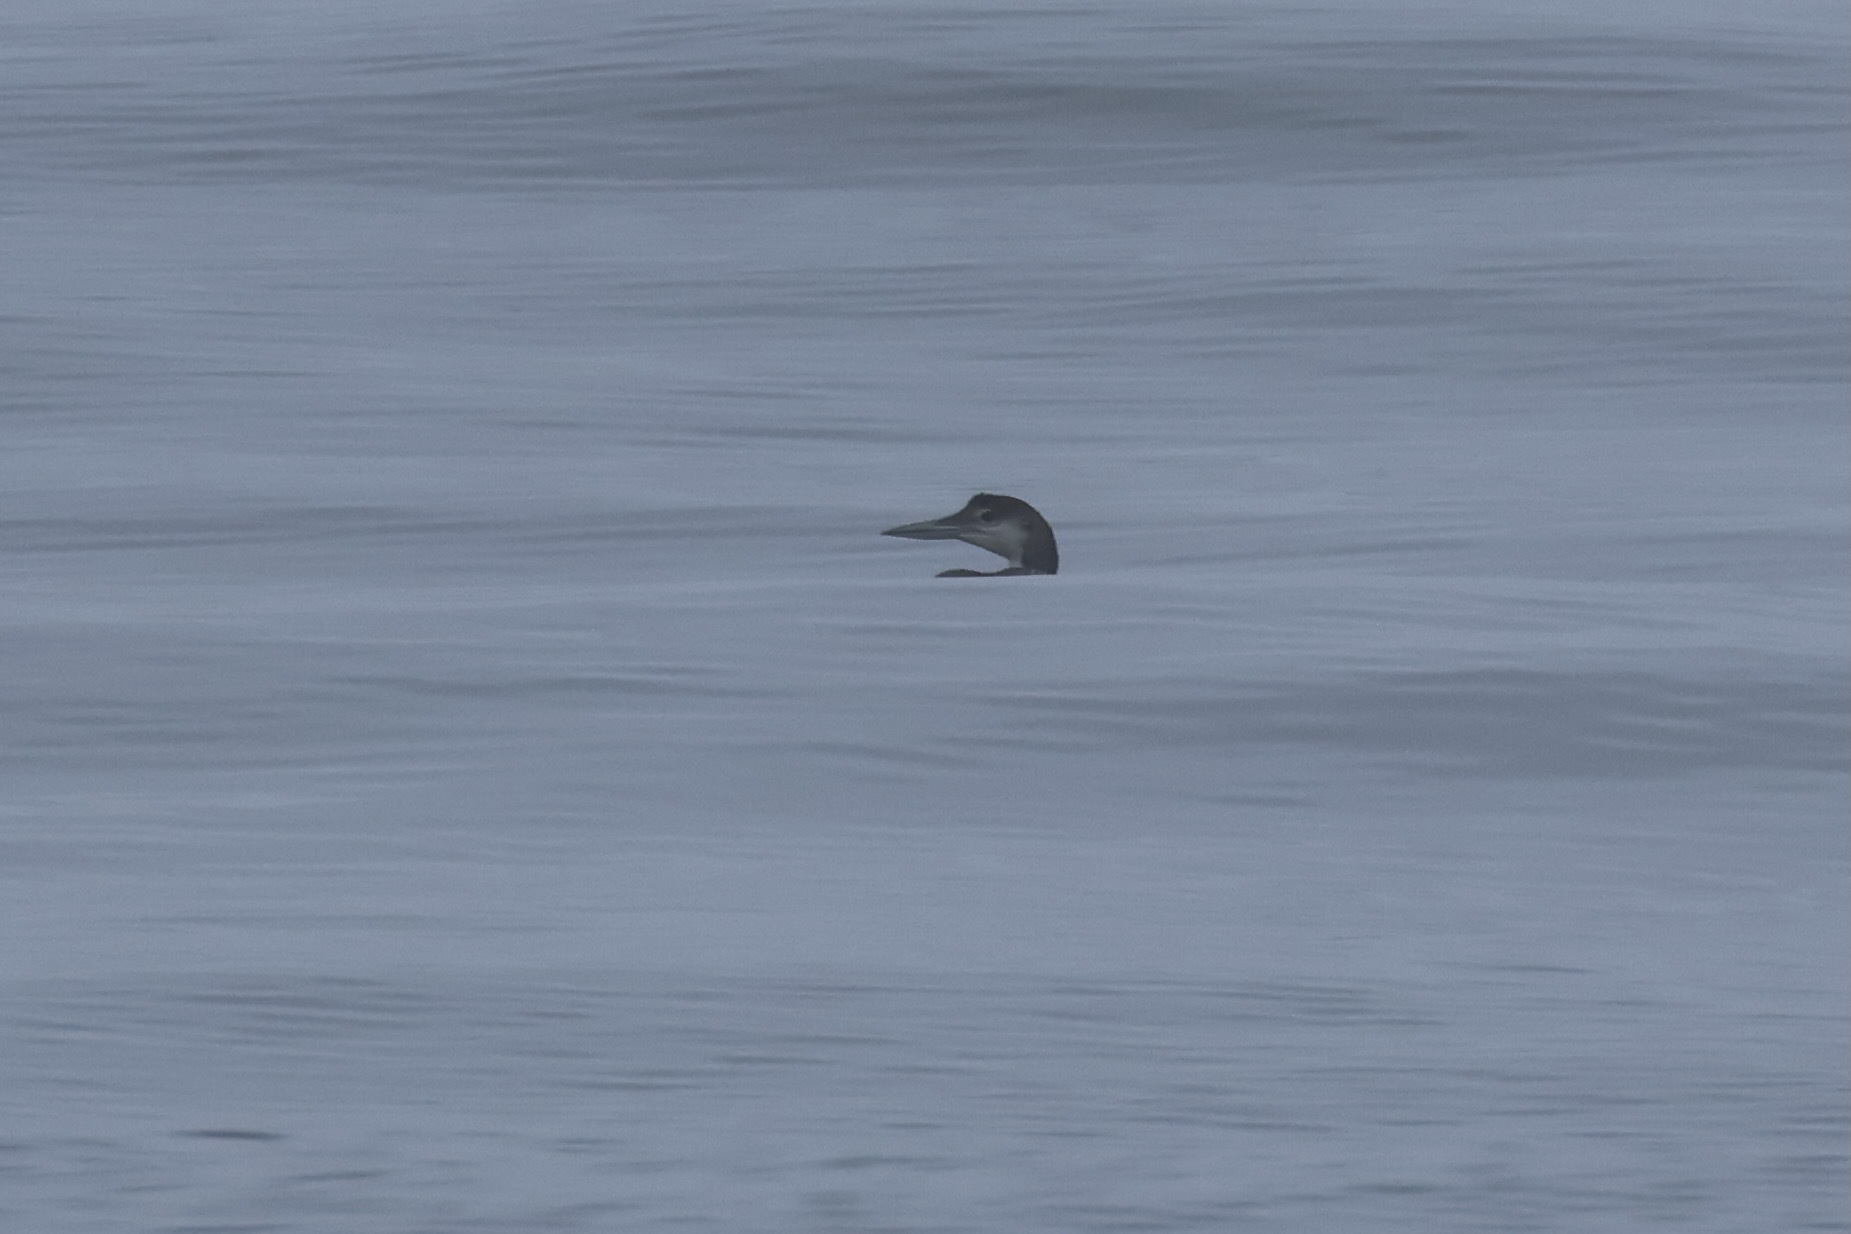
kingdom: Animalia
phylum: Chordata
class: Aves
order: Gaviiformes
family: Gaviidae
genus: Gavia
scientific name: Gavia immer
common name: Common loon
